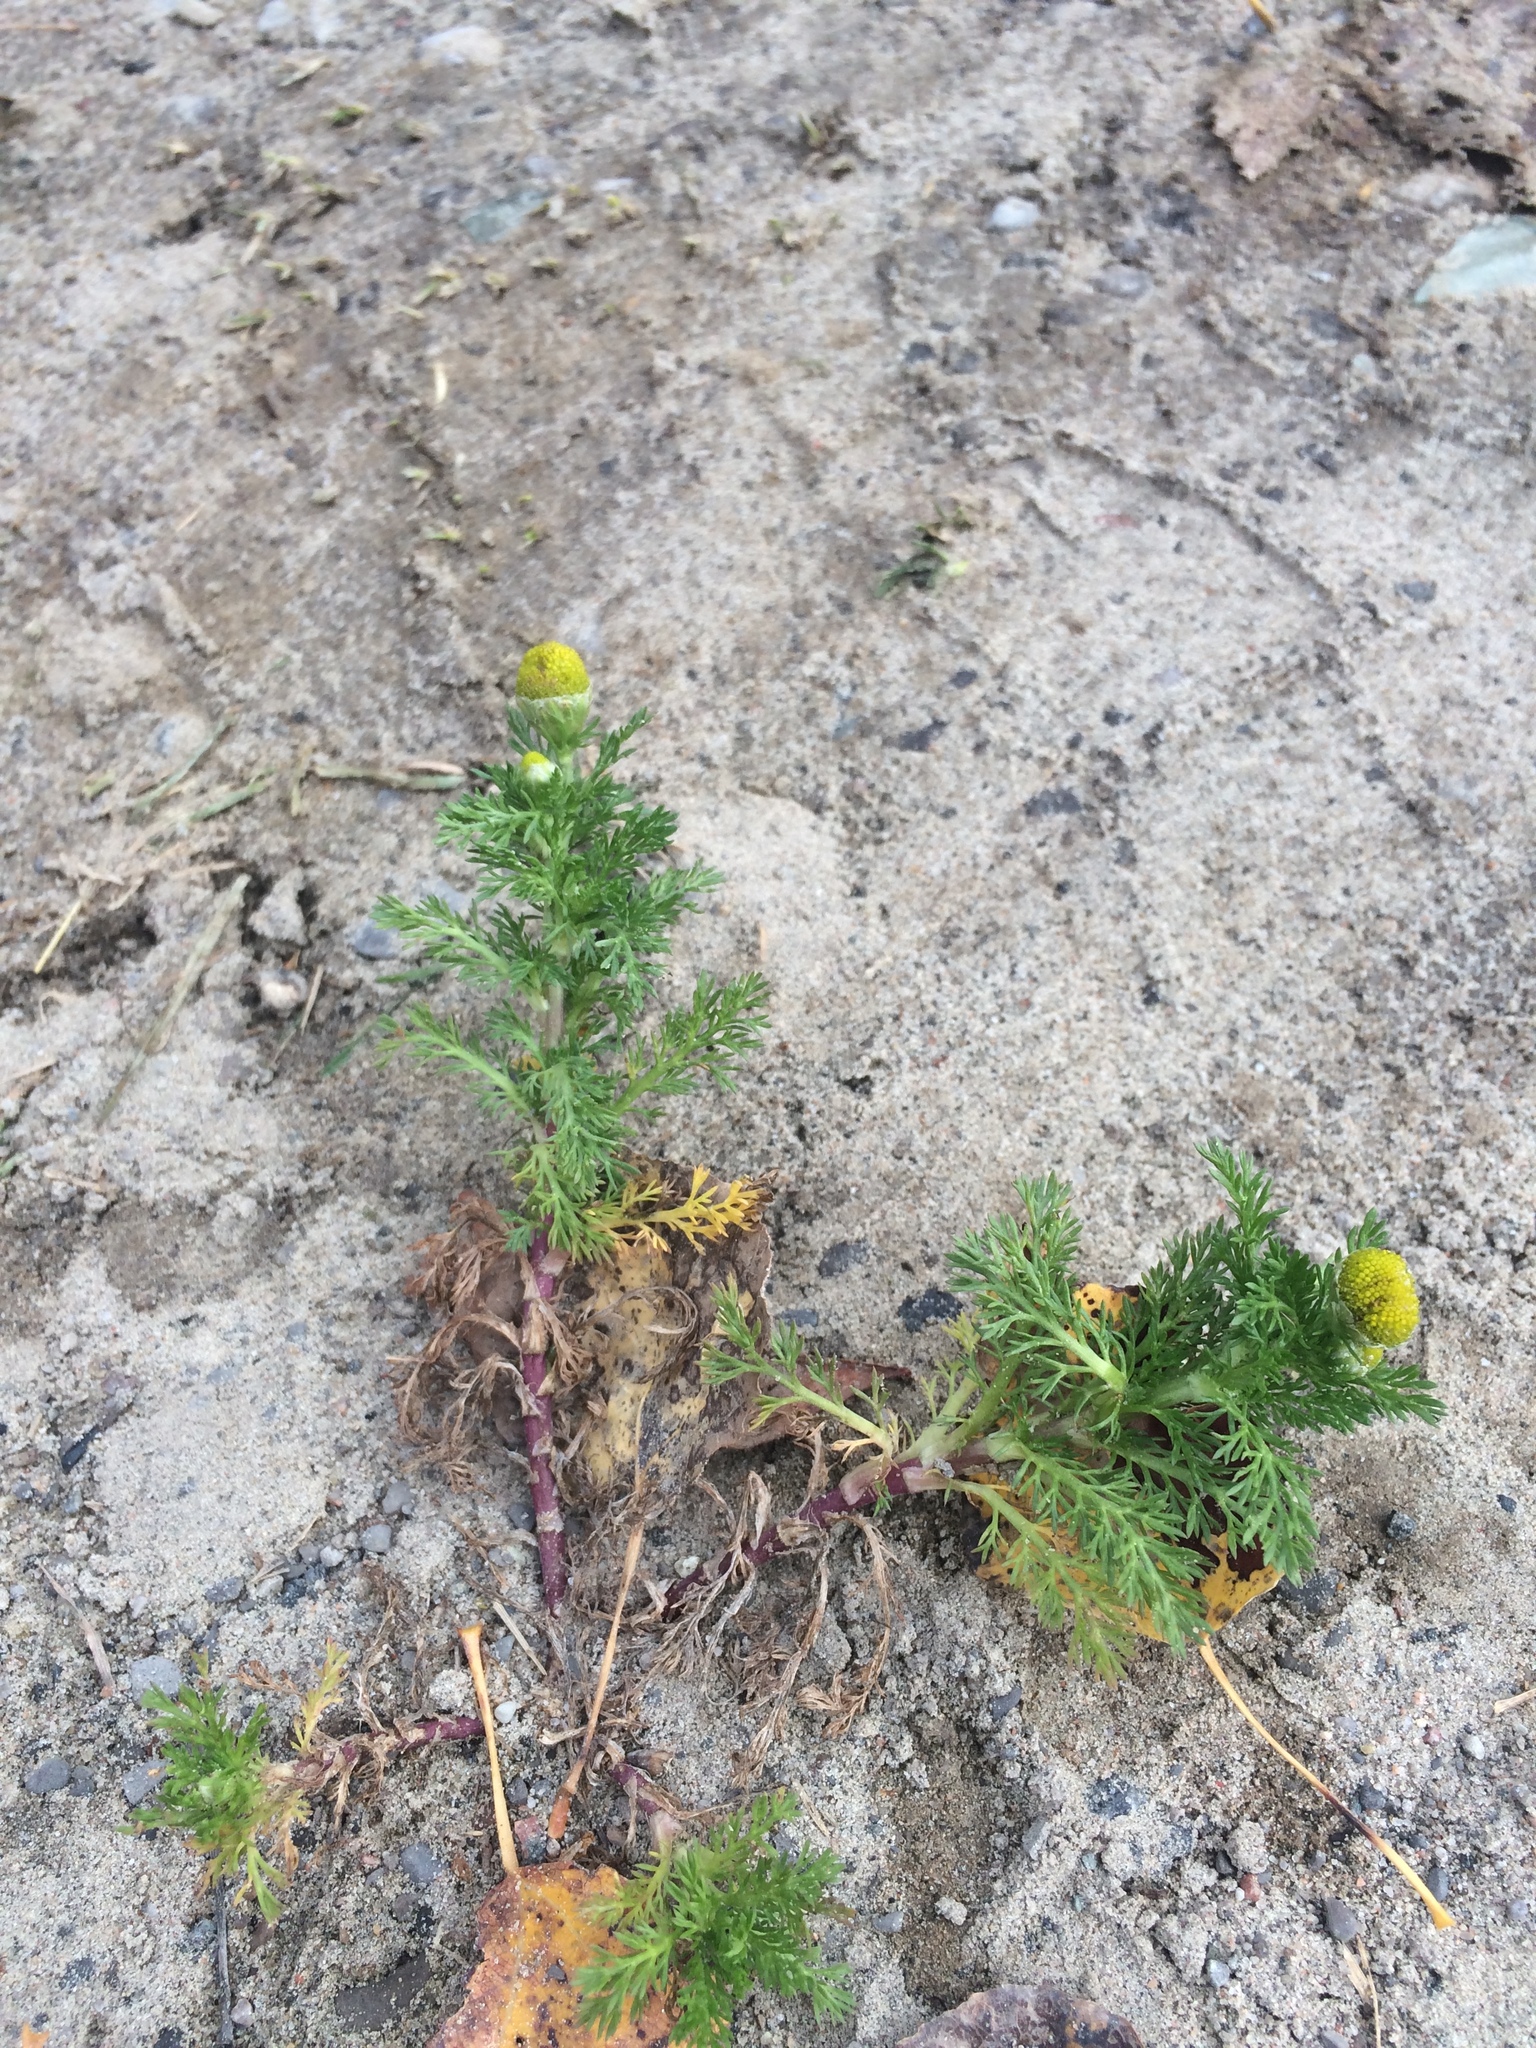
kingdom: Plantae
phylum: Tracheophyta
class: Magnoliopsida
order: Asterales
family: Asteraceae
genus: Matricaria
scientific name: Matricaria discoidea
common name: Disc mayweed
